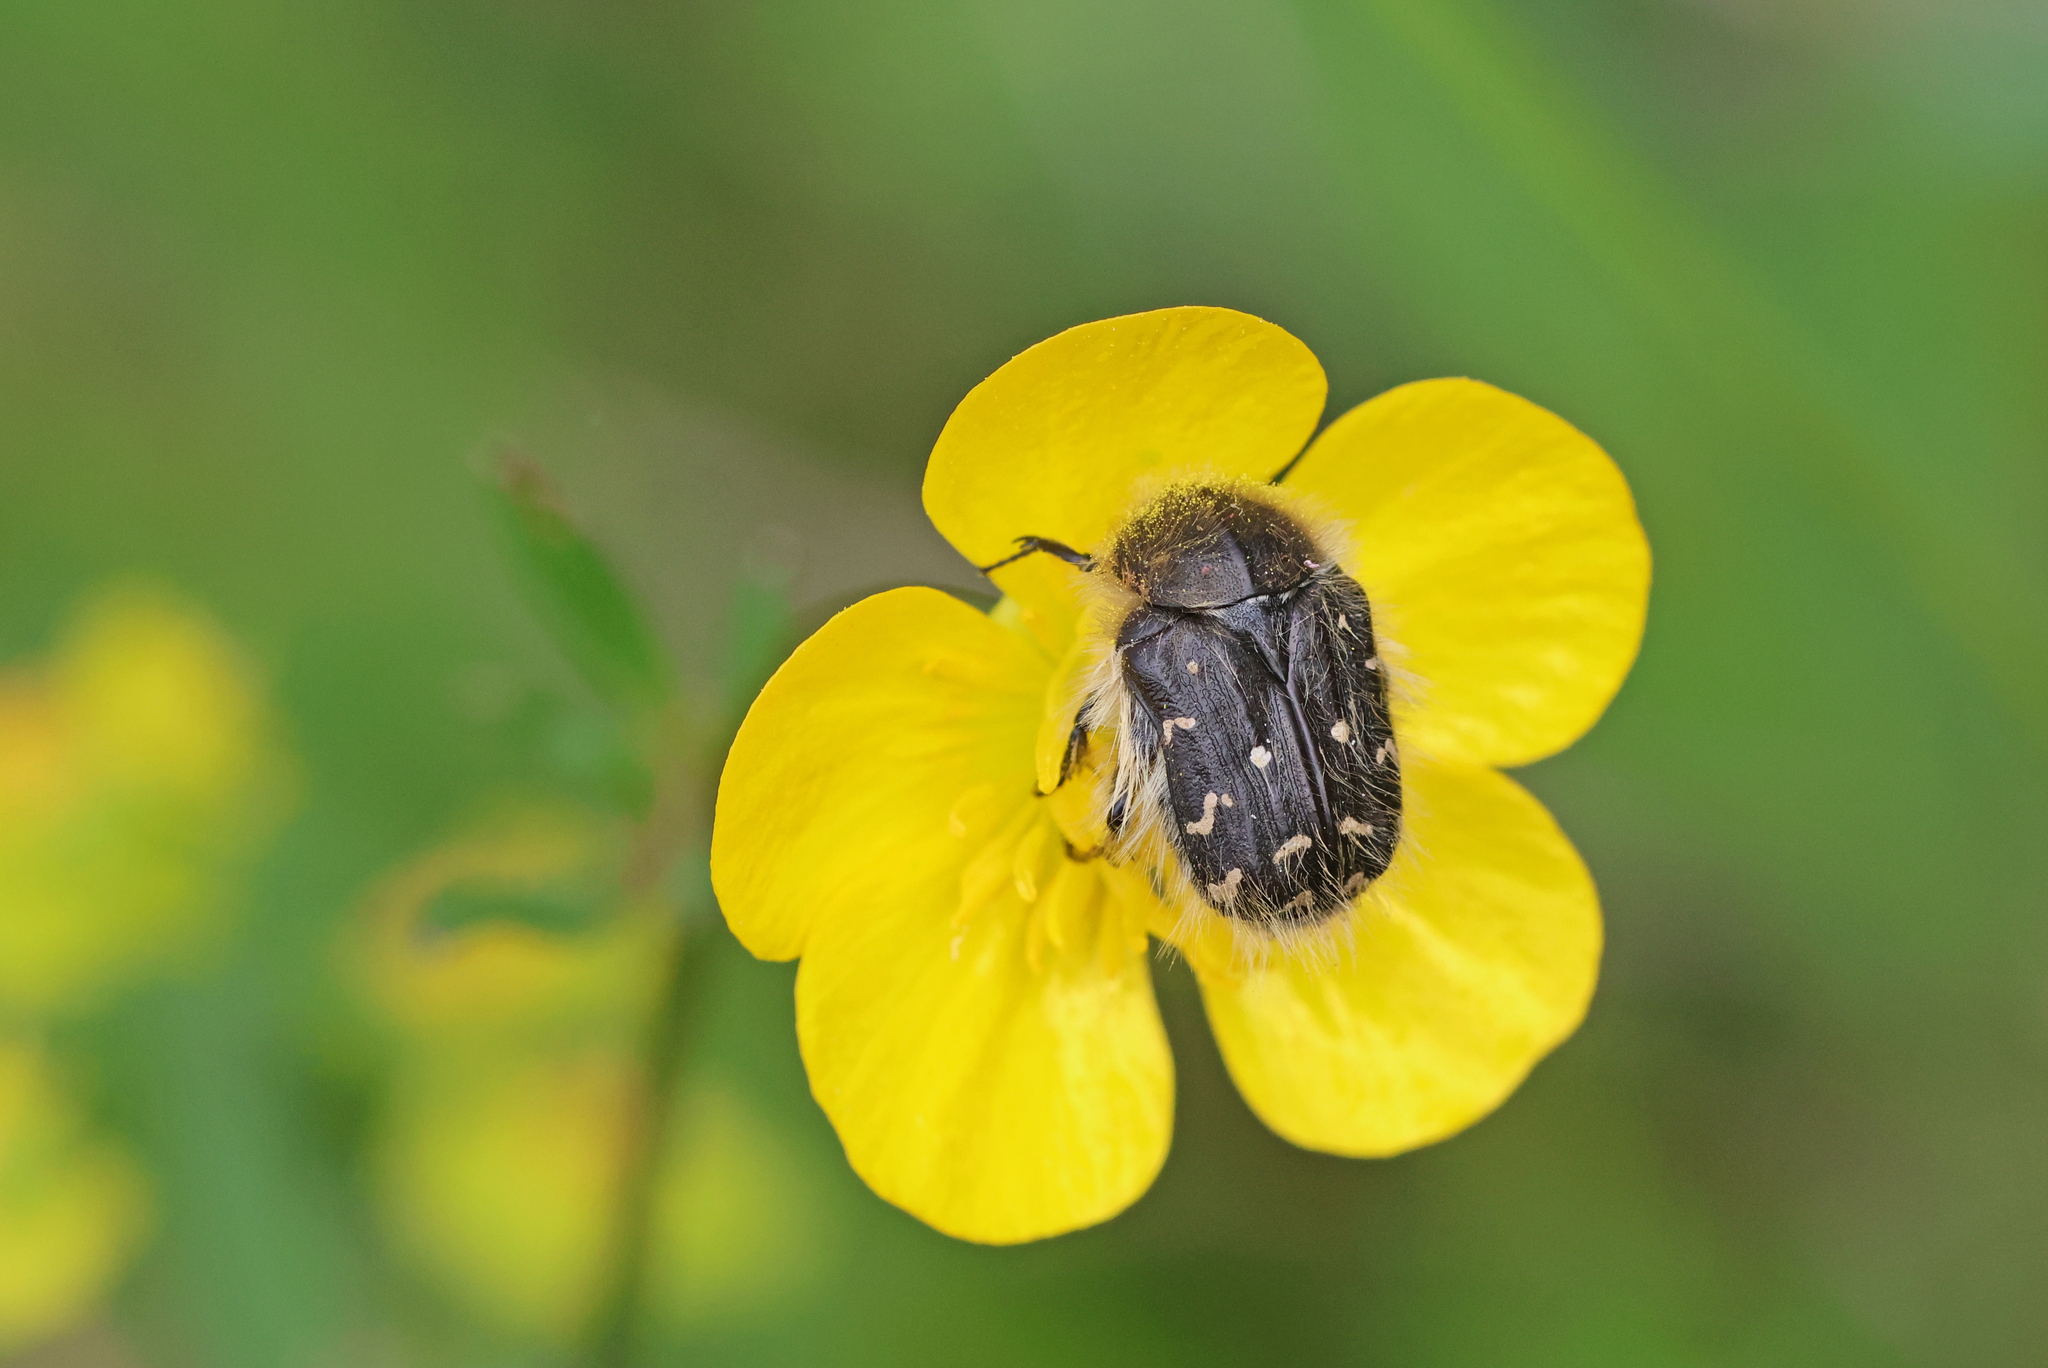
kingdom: Animalia
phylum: Arthropoda
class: Insecta
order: Coleoptera
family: Scarabaeidae
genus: Tropinota
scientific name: Tropinota hirta
